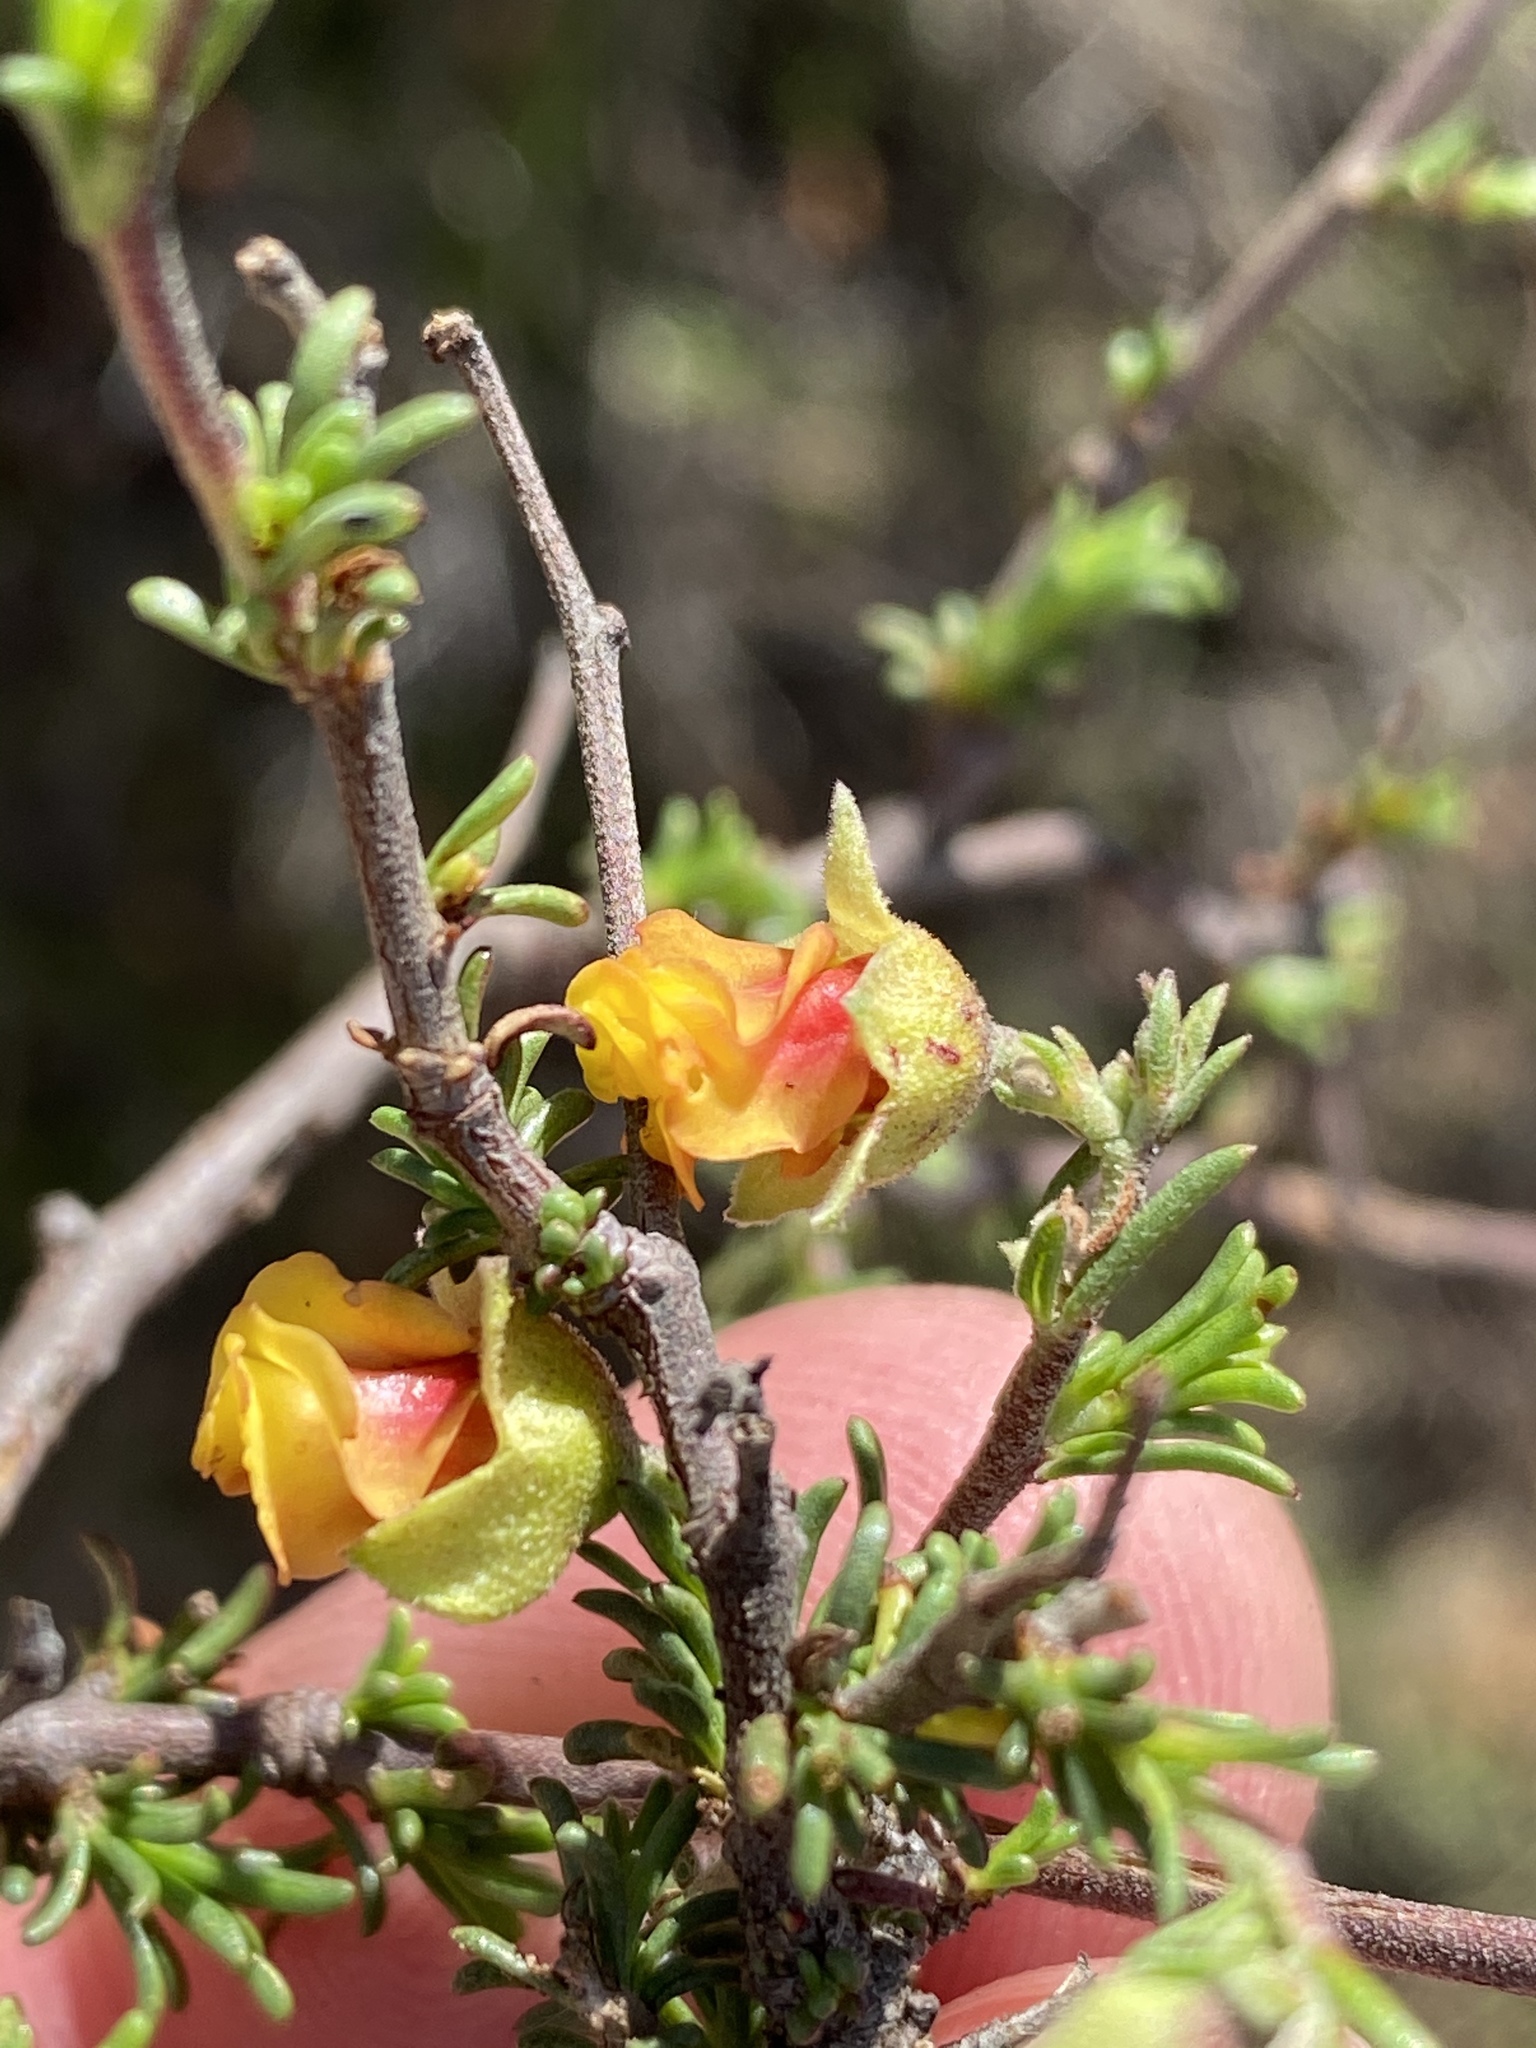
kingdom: Plantae
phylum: Tracheophyta
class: Magnoliopsida
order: Malvales
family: Malvaceae
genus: Hermannia
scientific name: Hermannia filifolia
